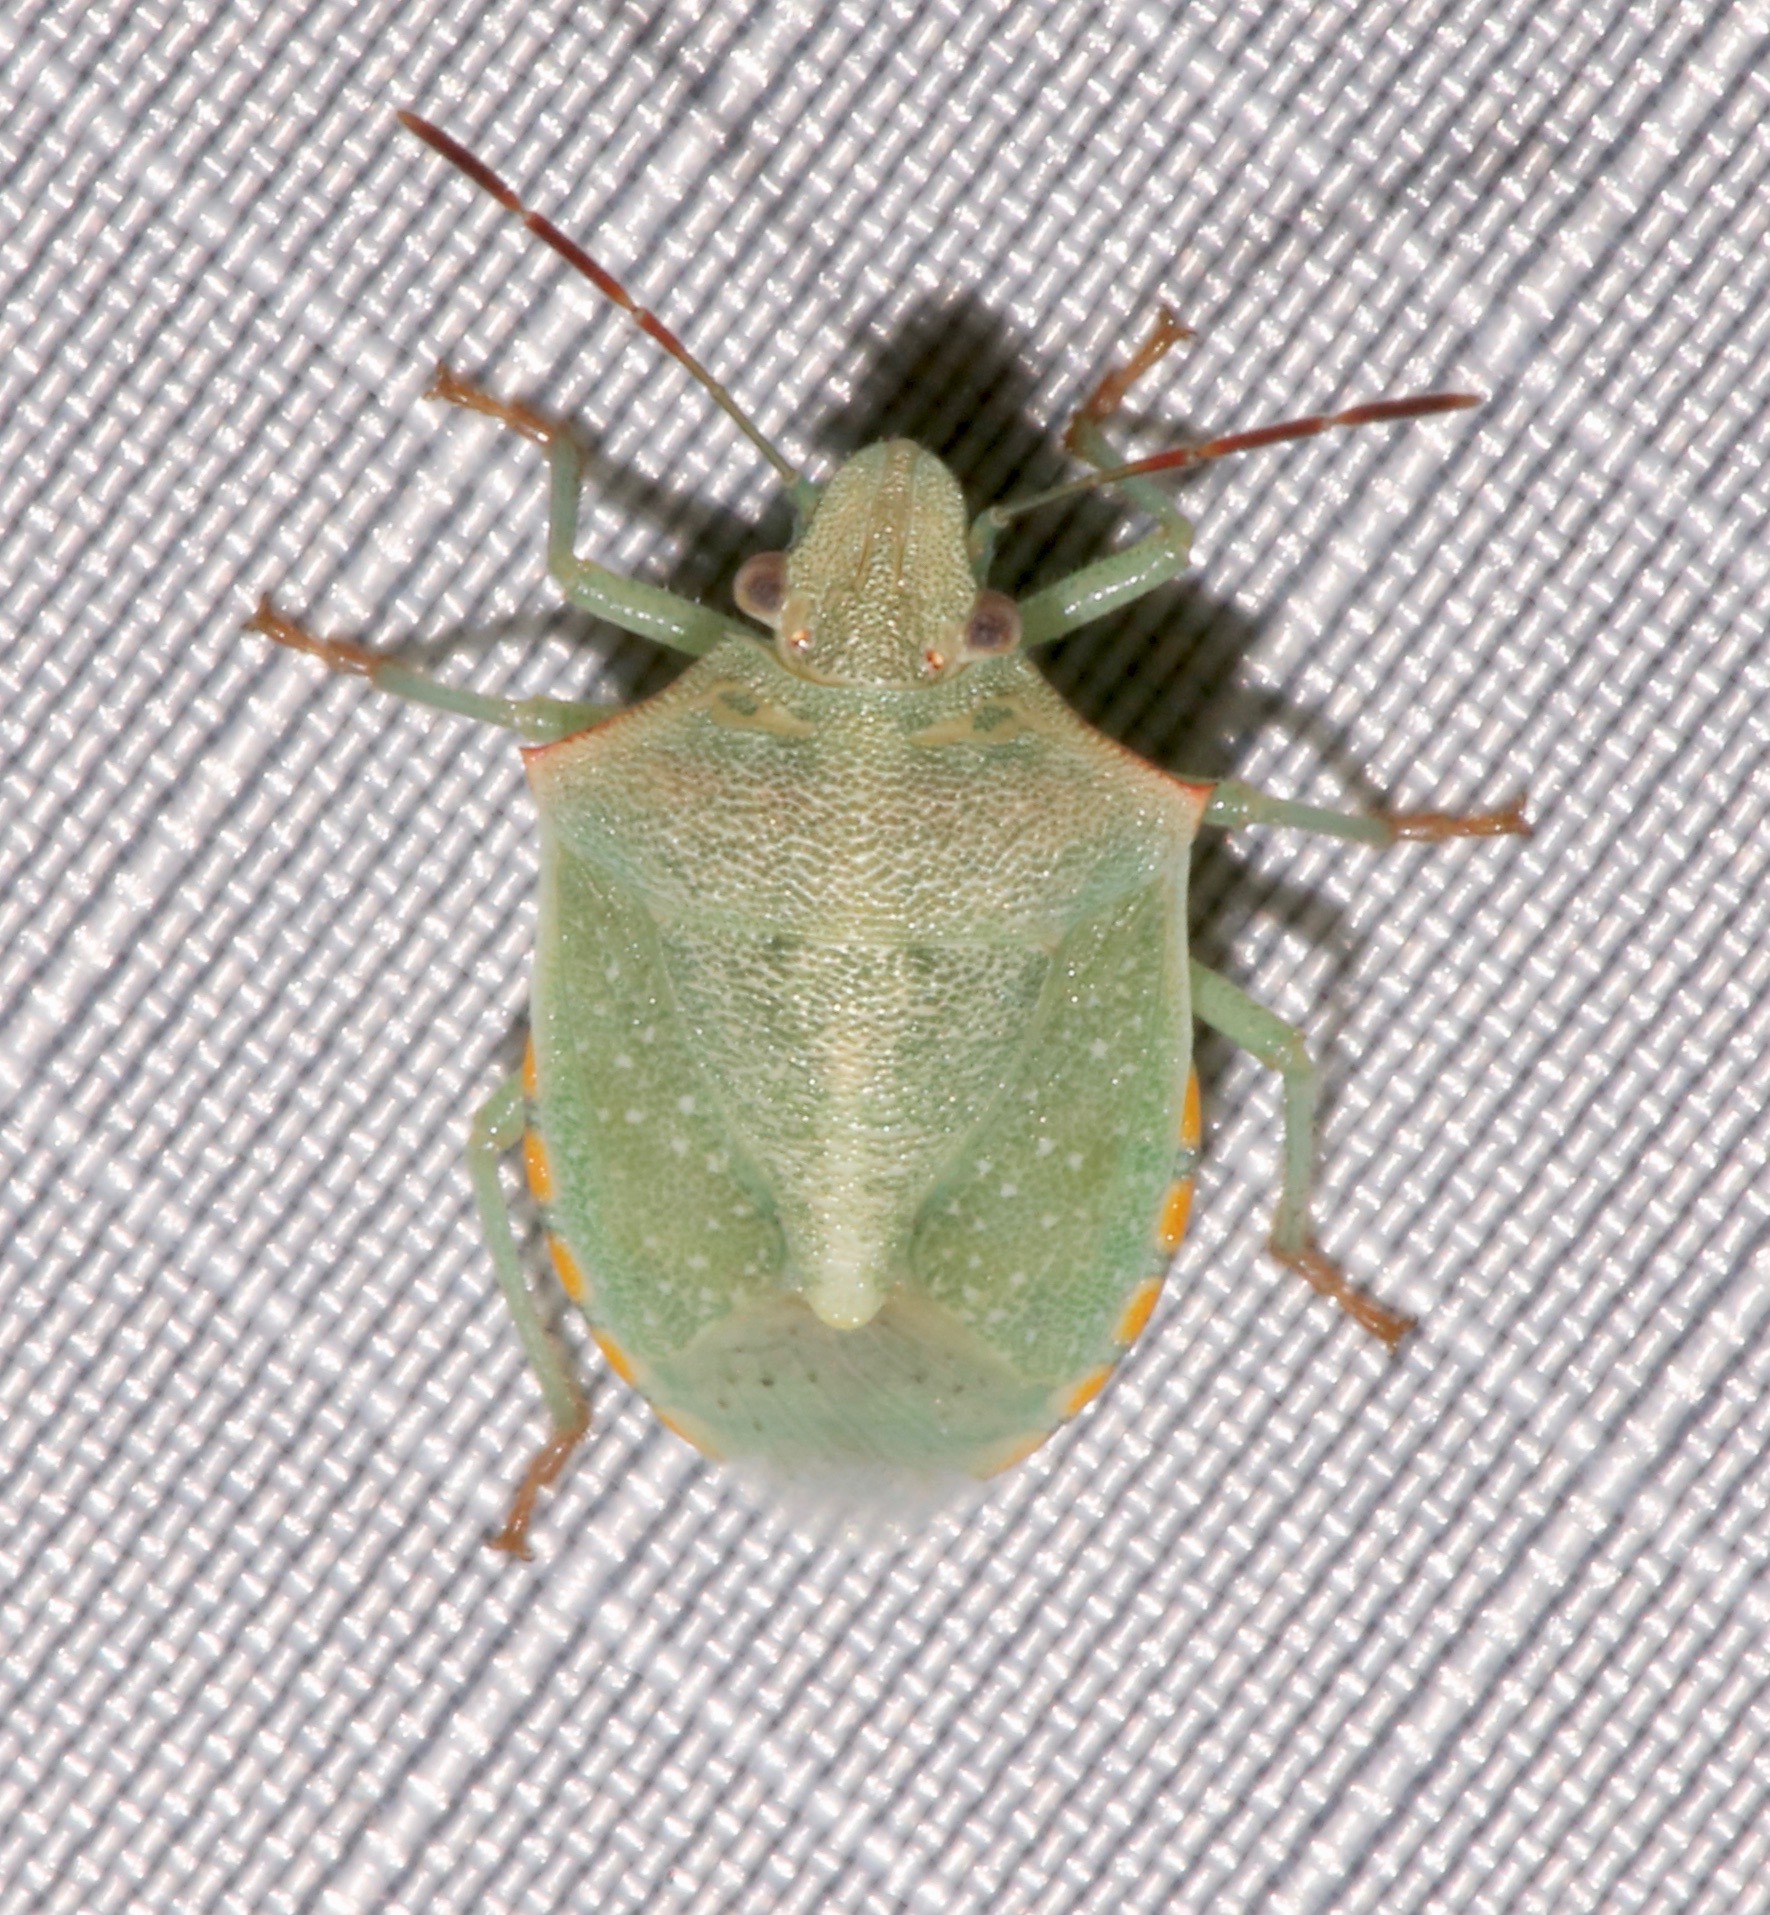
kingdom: Animalia
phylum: Arthropoda
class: Insecta
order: Hemiptera
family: Pentatomidae
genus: Thyanta
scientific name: Thyanta accerra
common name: Stink bug
